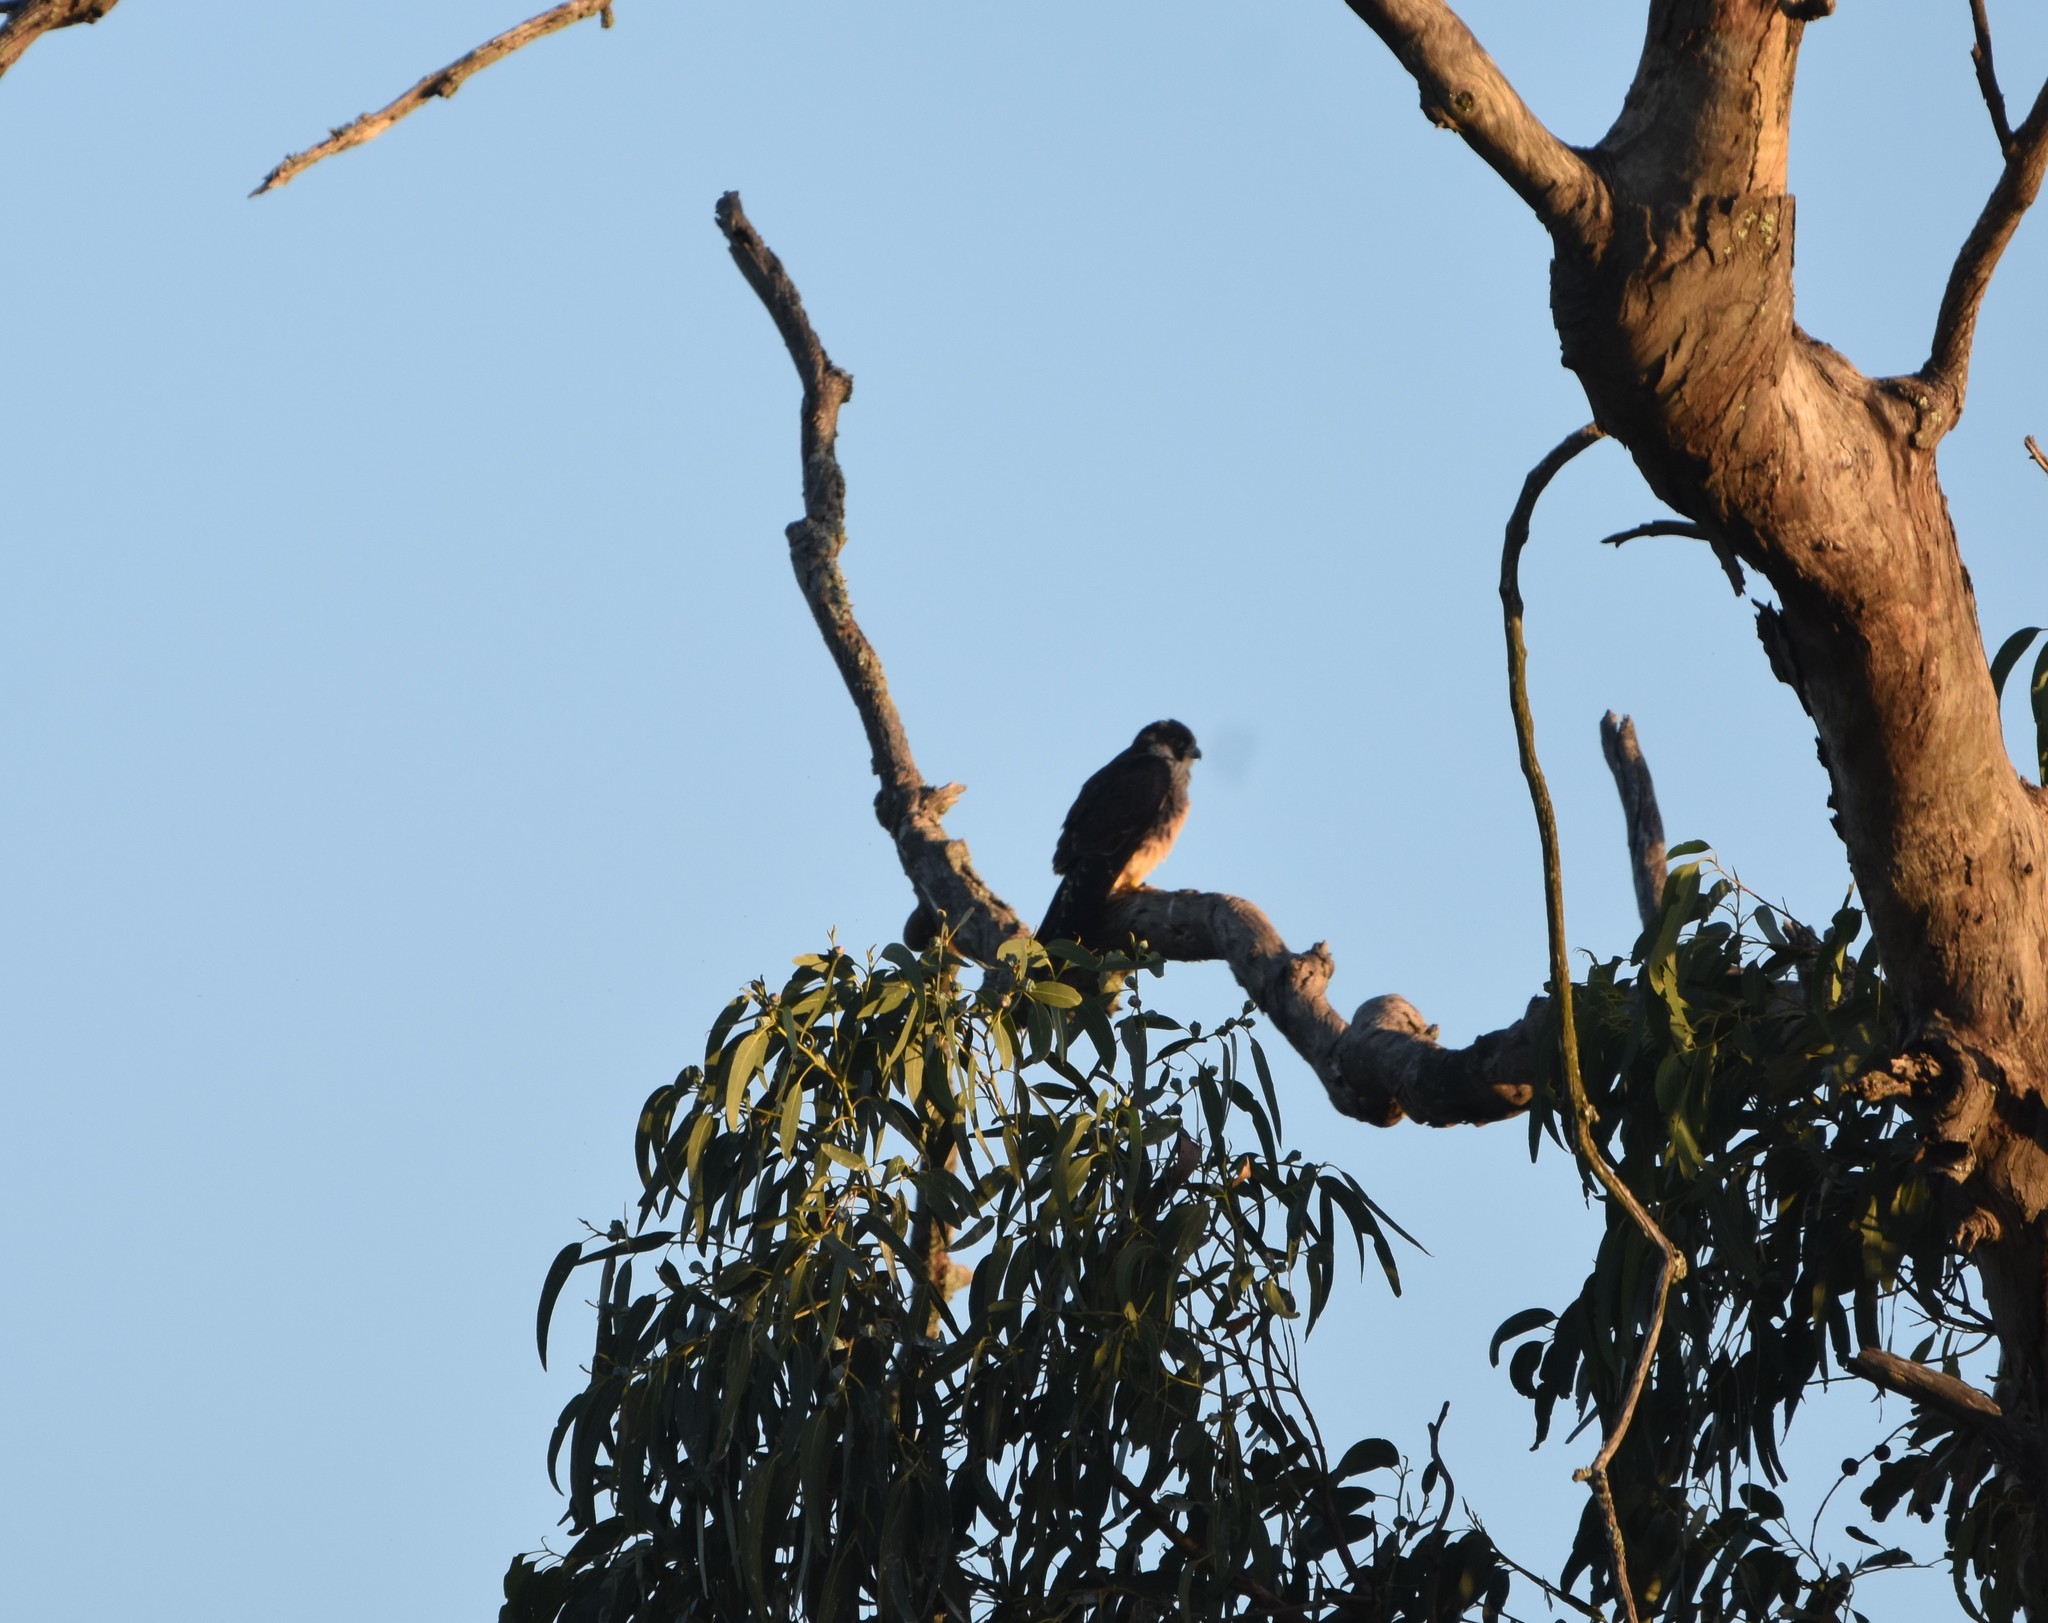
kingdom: Animalia
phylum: Chordata
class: Aves
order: Falconiformes
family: Falconidae
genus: Falco
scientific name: Falco peregrinus
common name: Peregrine falcon
